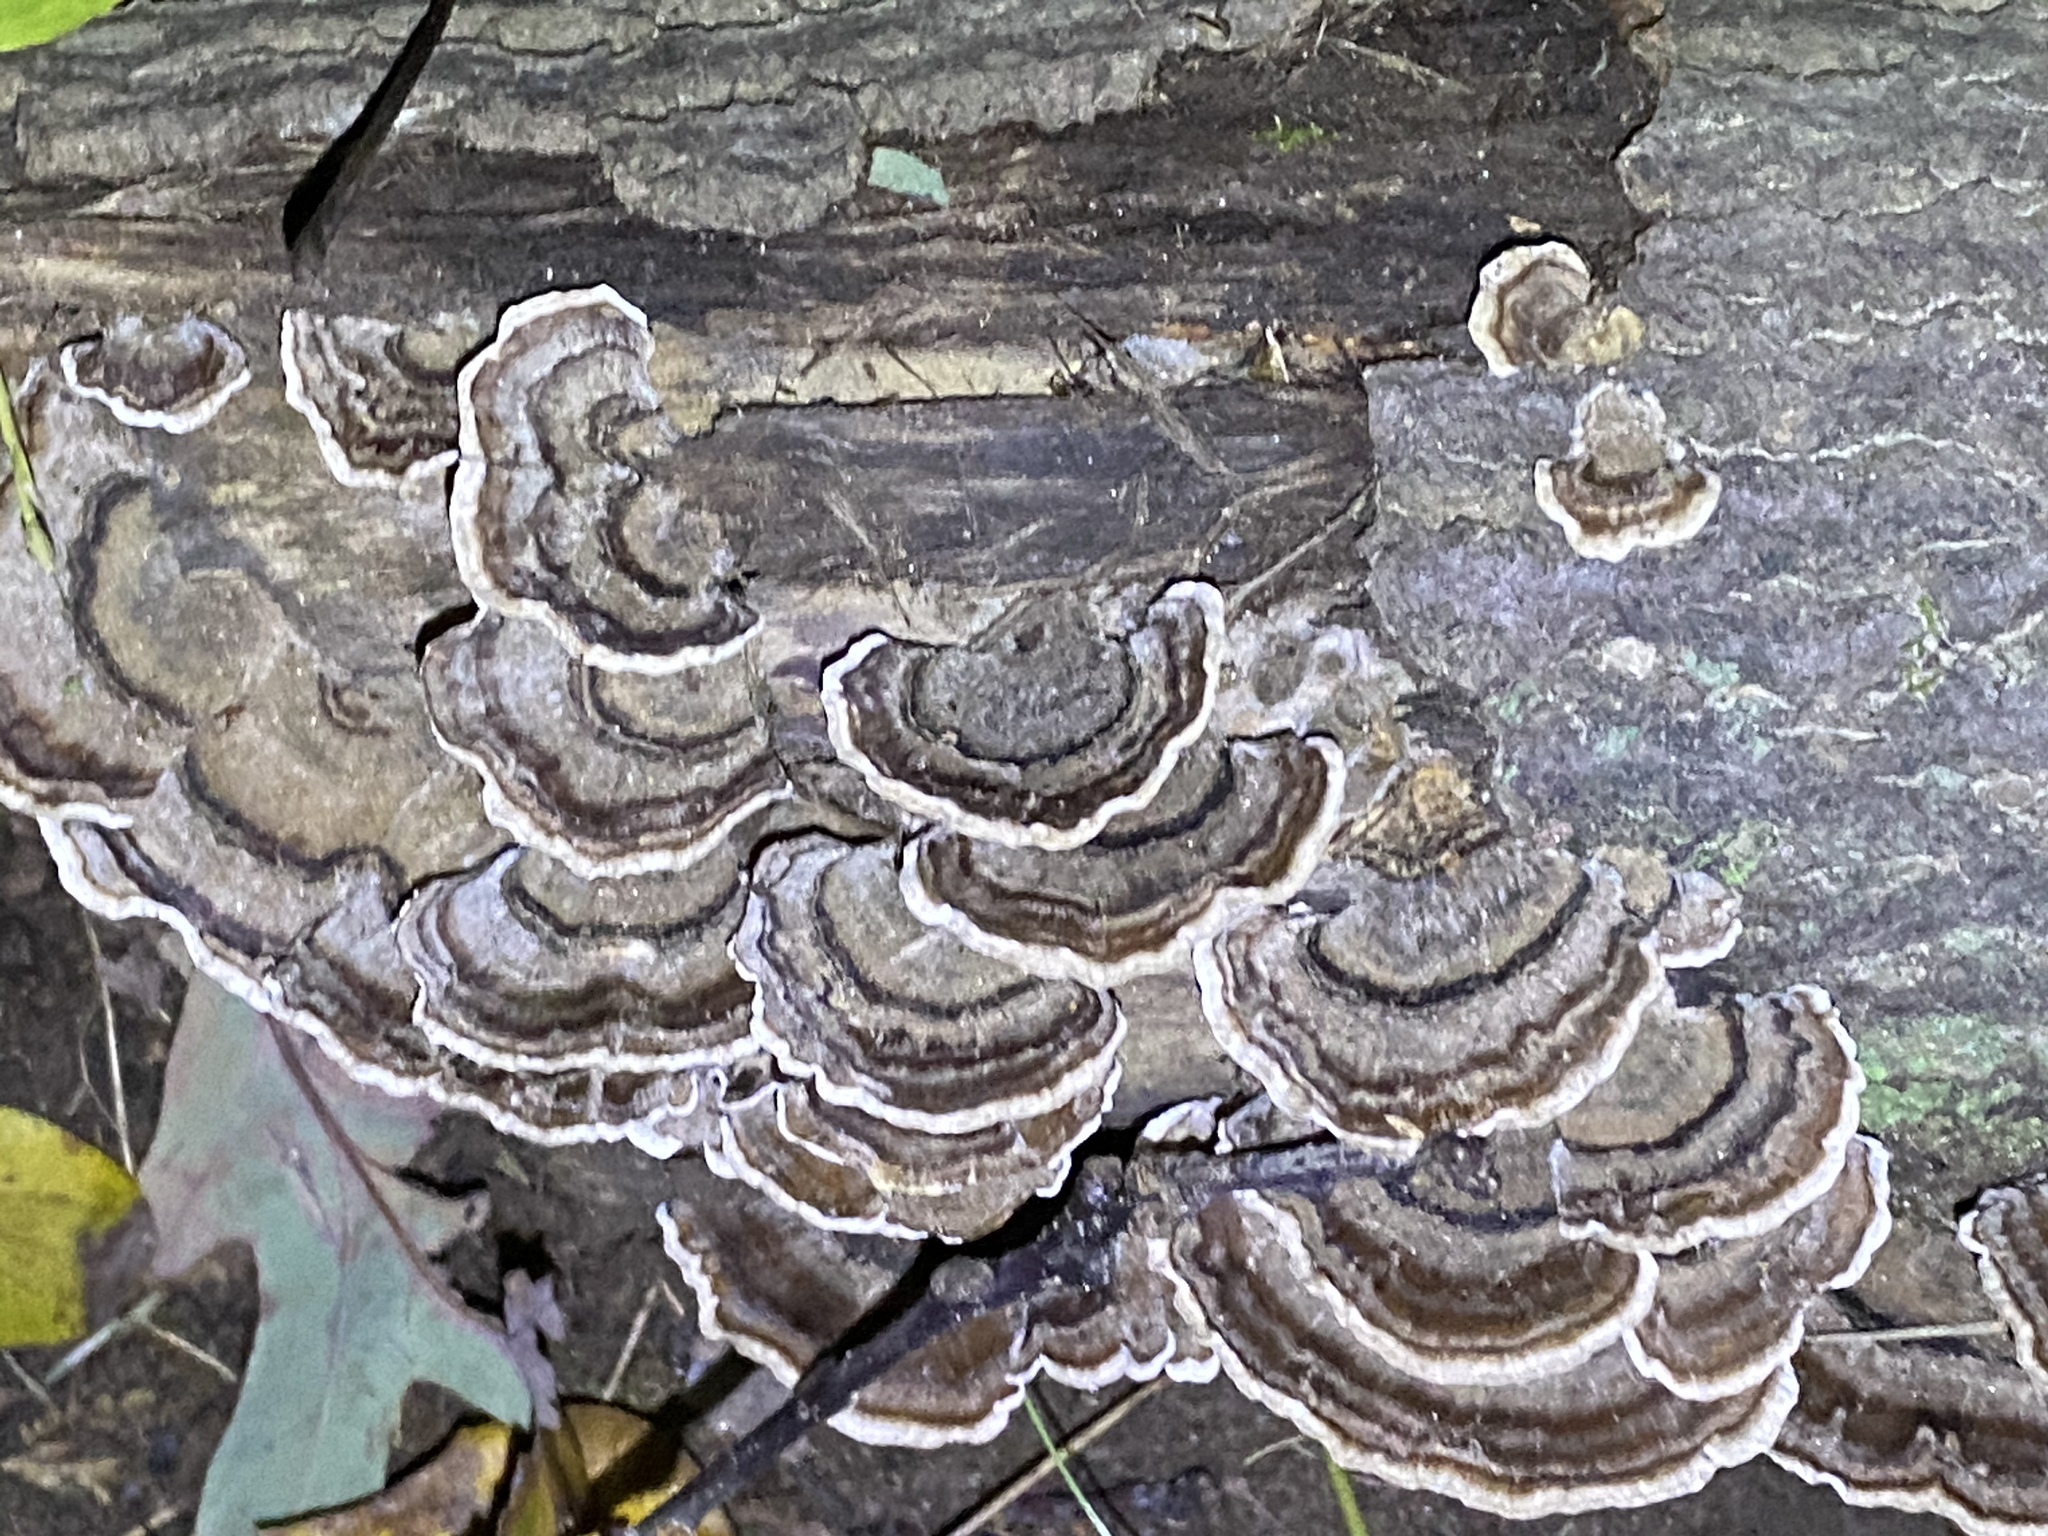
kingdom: Fungi
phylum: Basidiomycota
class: Agaricomycetes
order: Polyporales
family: Polyporaceae
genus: Trametes
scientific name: Trametes versicolor
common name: Turkeytail
